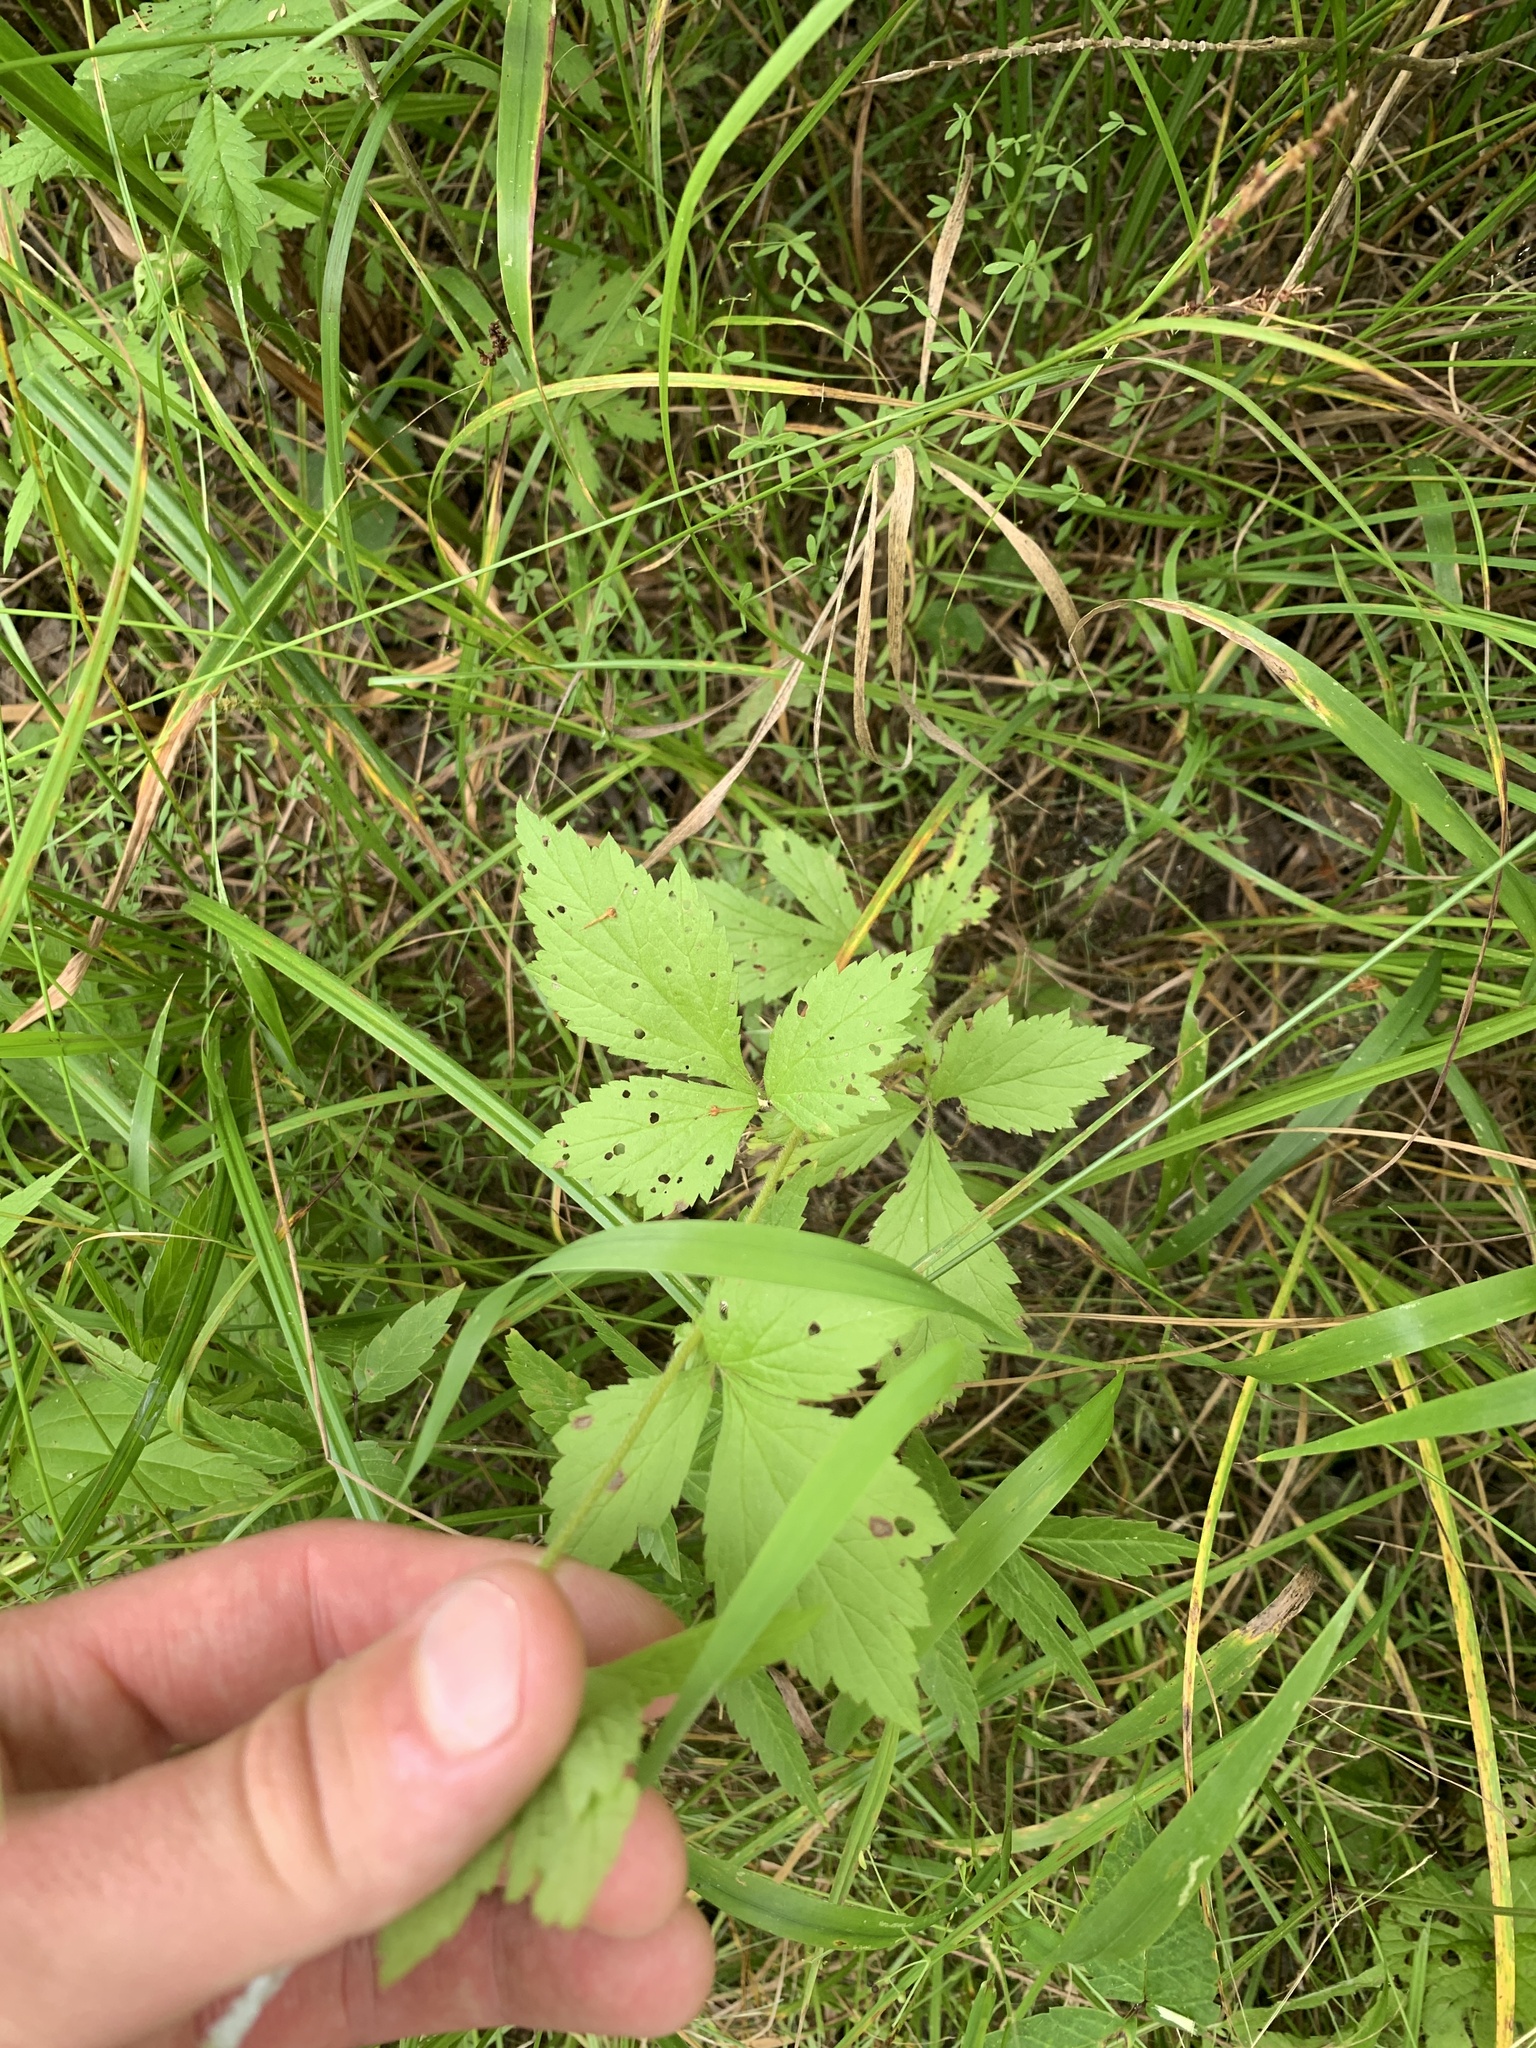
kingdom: Plantae
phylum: Tracheophyta
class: Magnoliopsida
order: Rosales
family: Rosaceae
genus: Geum
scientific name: Geum laciniatum
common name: Rough avens
